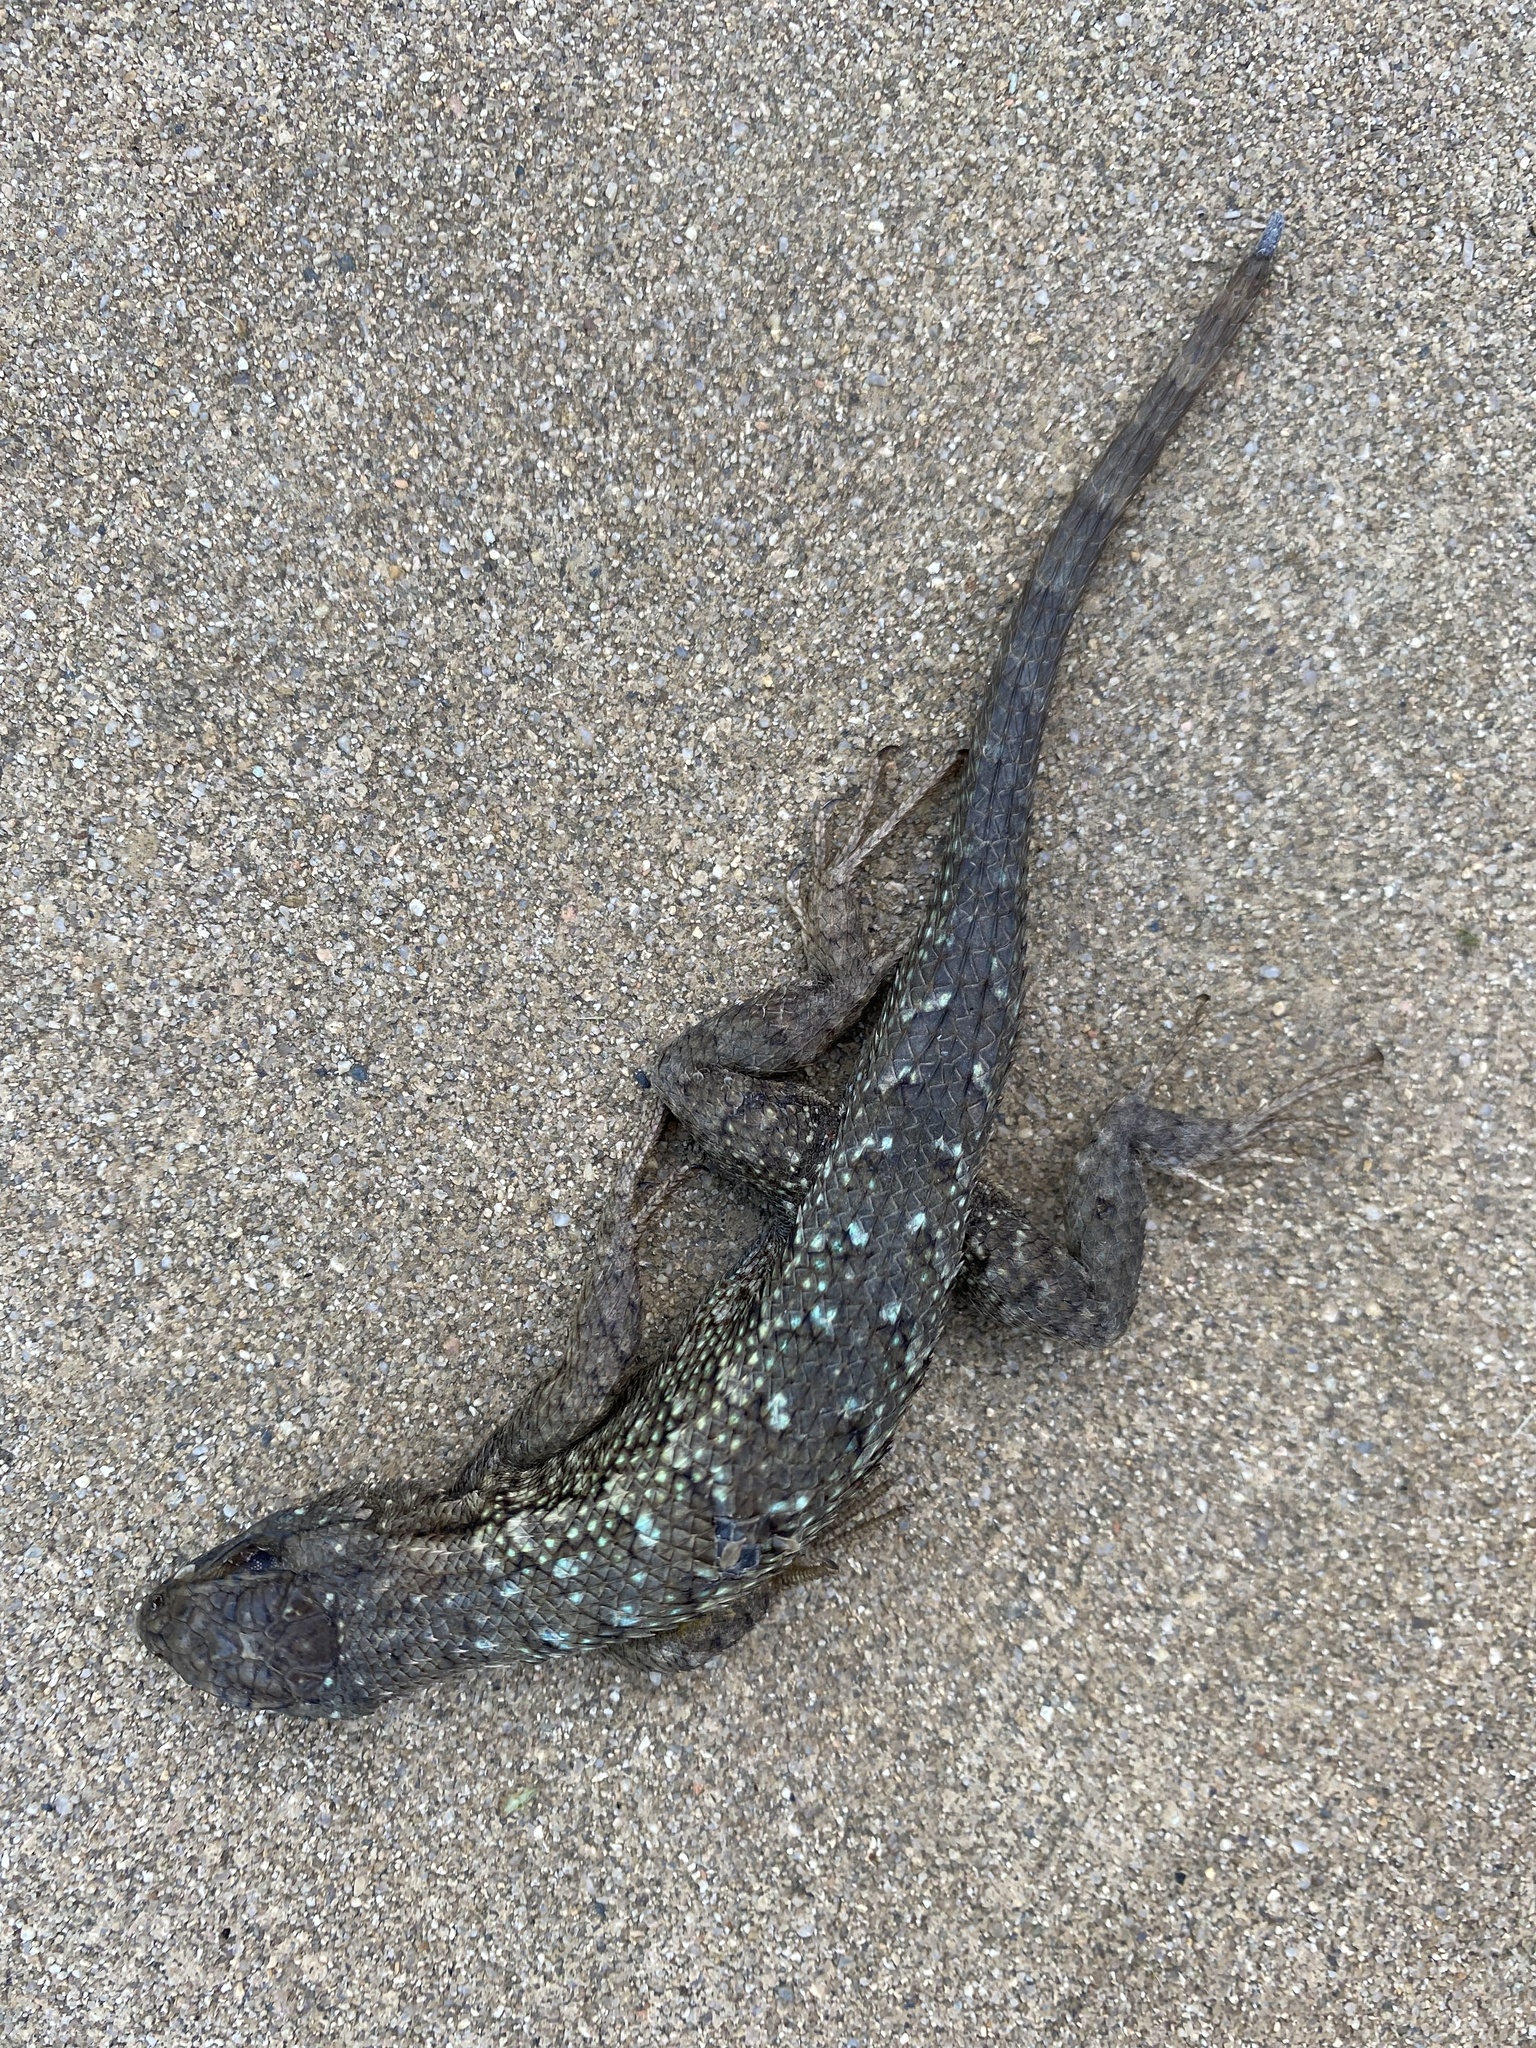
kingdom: Animalia
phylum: Chordata
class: Squamata
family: Phrynosomatidae
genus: Sceloporus
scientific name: Sceloporus occidentalis
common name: Western fence lizard
